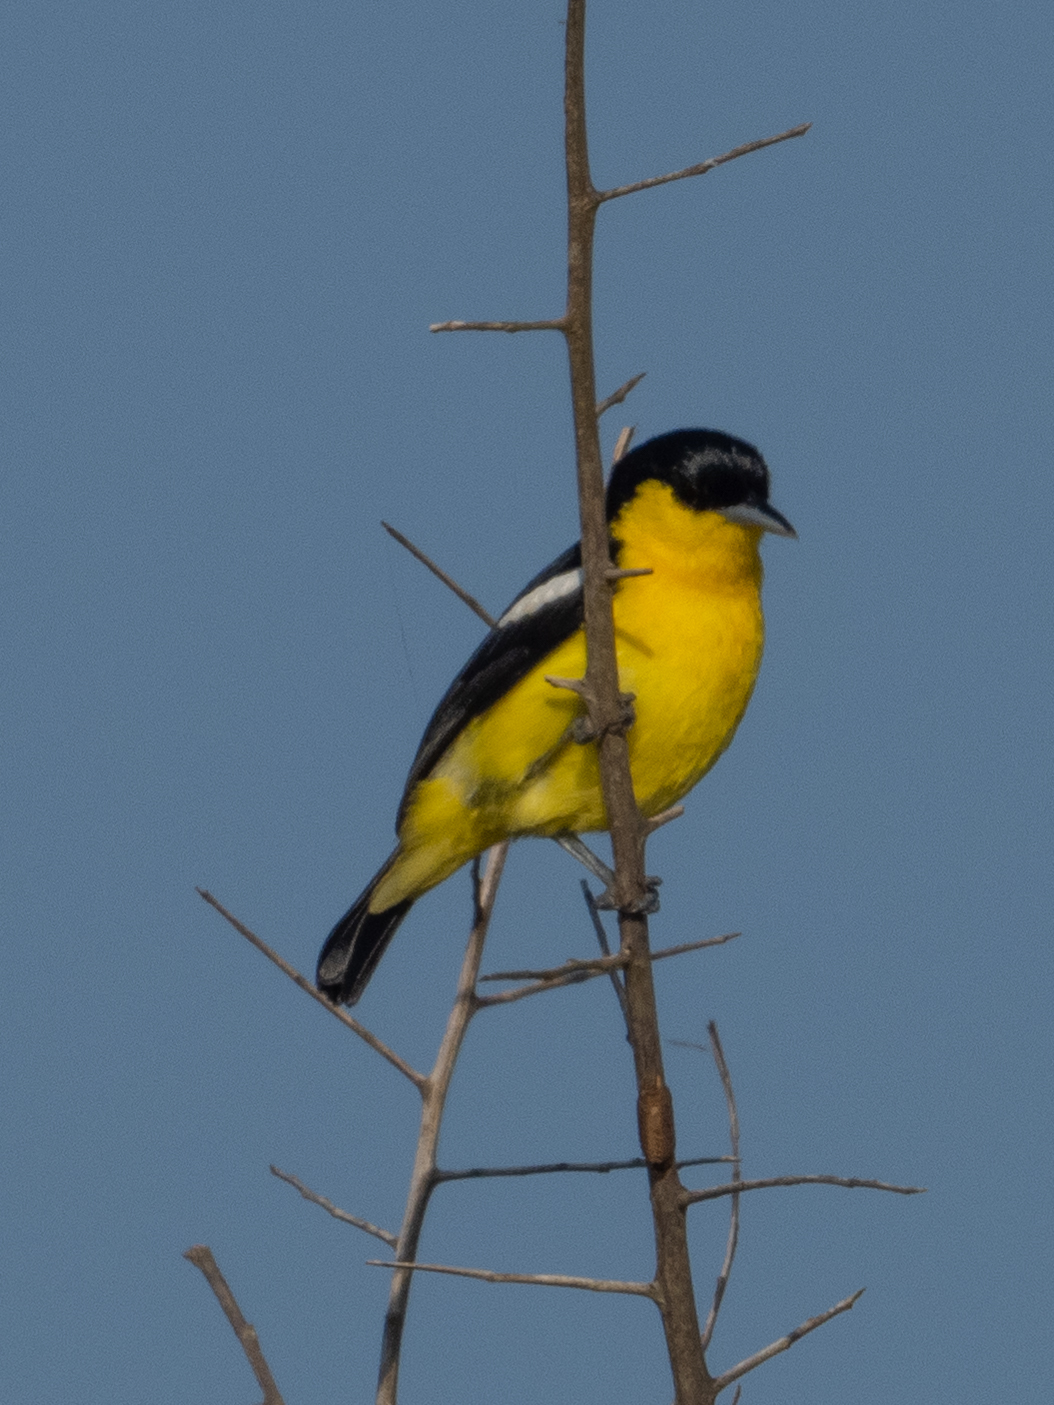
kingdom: Animalia
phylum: Chordata
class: Aves
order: Passeriformes
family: Aegithinidae
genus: Aegithina
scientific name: Aegithina tiphia
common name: Common iora
